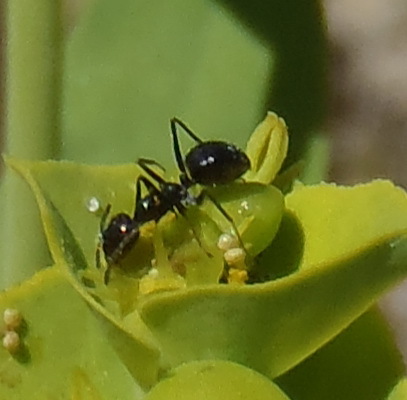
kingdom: Animalia
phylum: Arthropoda
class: Insecta
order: Hymenoptera
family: Formicidae
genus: Lepisiota
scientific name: Lepisiota capensis
